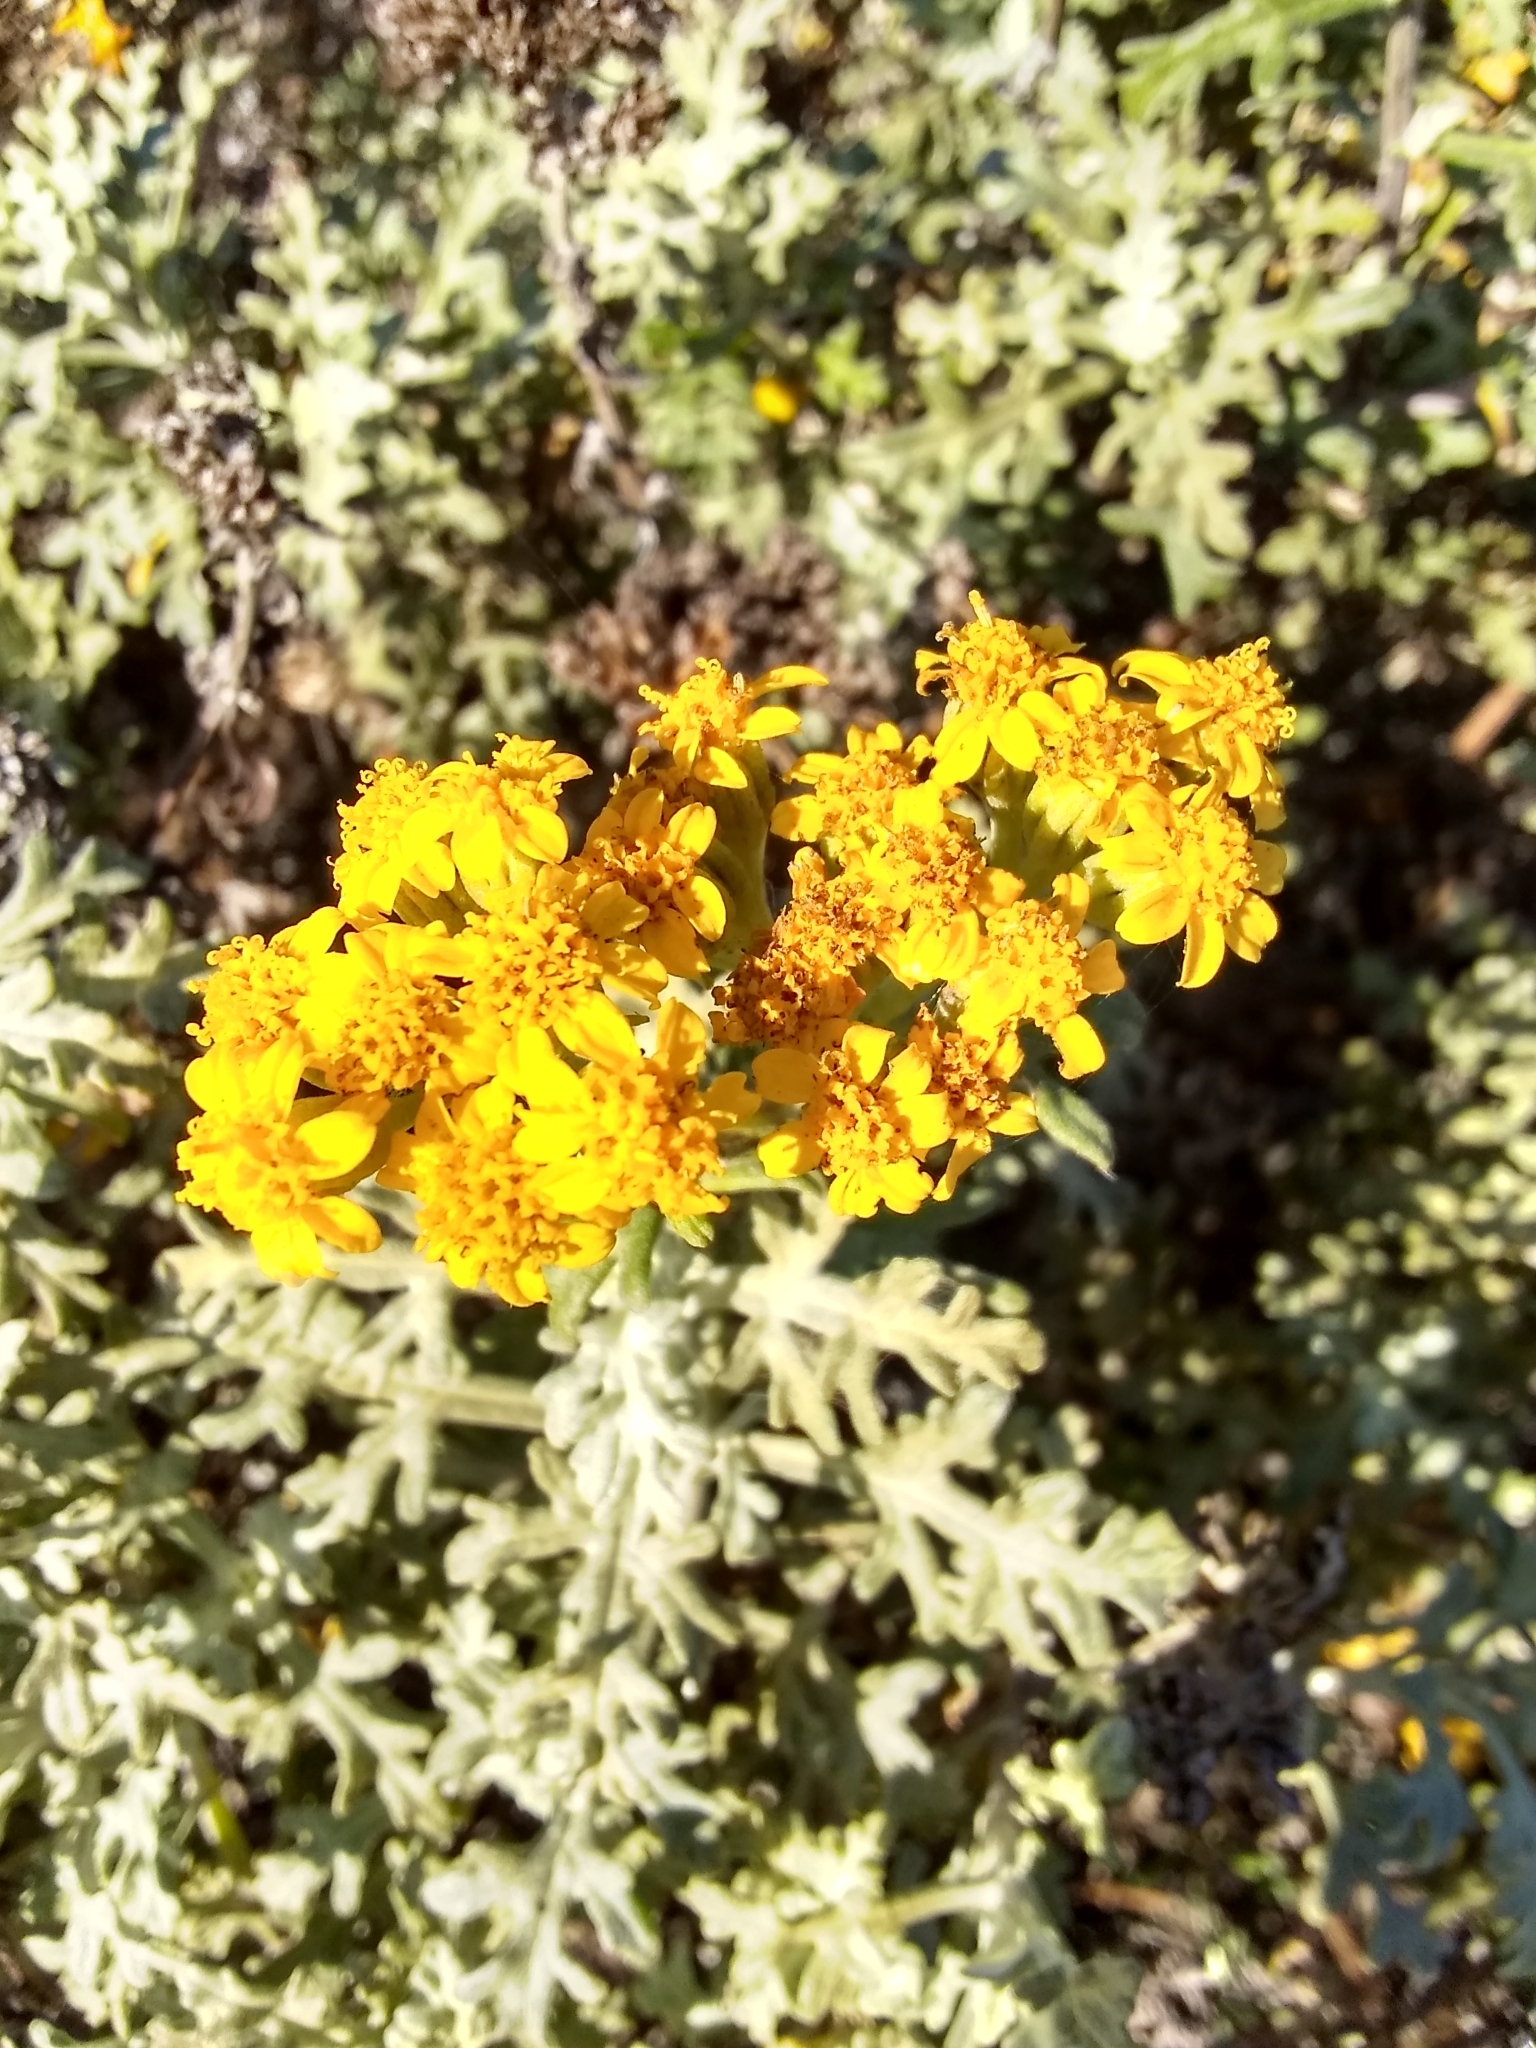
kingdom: Plantae
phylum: Tracheophyta
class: Magnoliopsida
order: Asterales
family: Asteraceae
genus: Eriophyllum
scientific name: Eriophyllum staechadifolium
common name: Lizardtail
